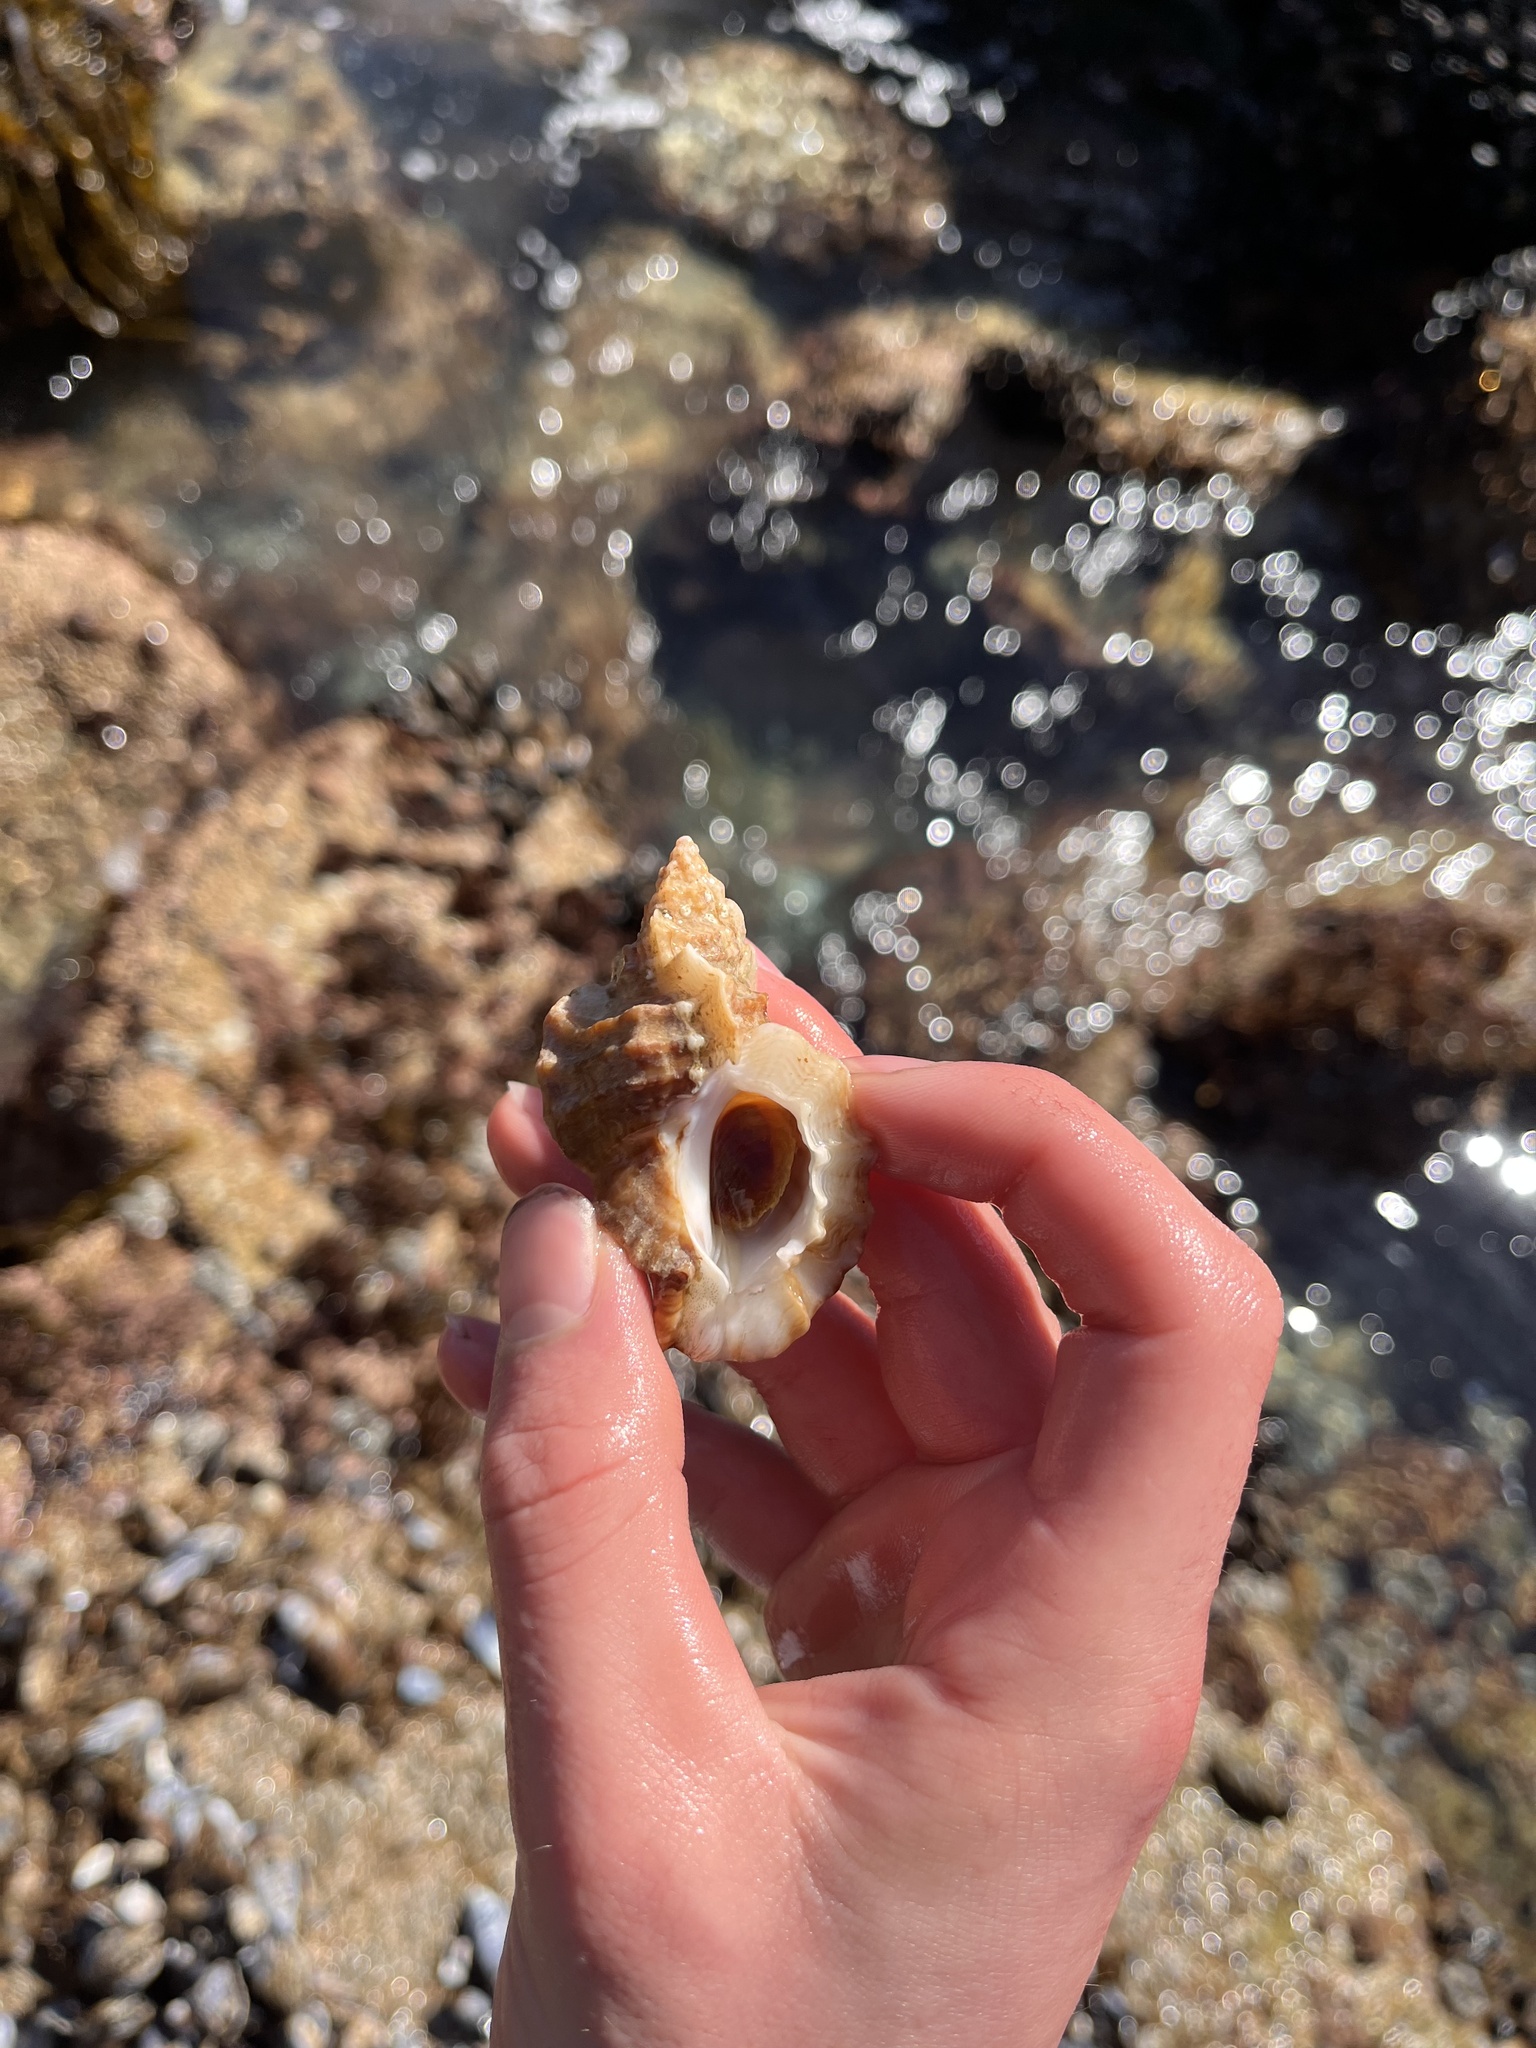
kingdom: Animalia
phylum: Mollusca
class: Gastropoda
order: Neogastropoda
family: Muricidae
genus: Ceratostoma
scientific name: Ceratostoma foliatum
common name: Foliate thorn purpura
